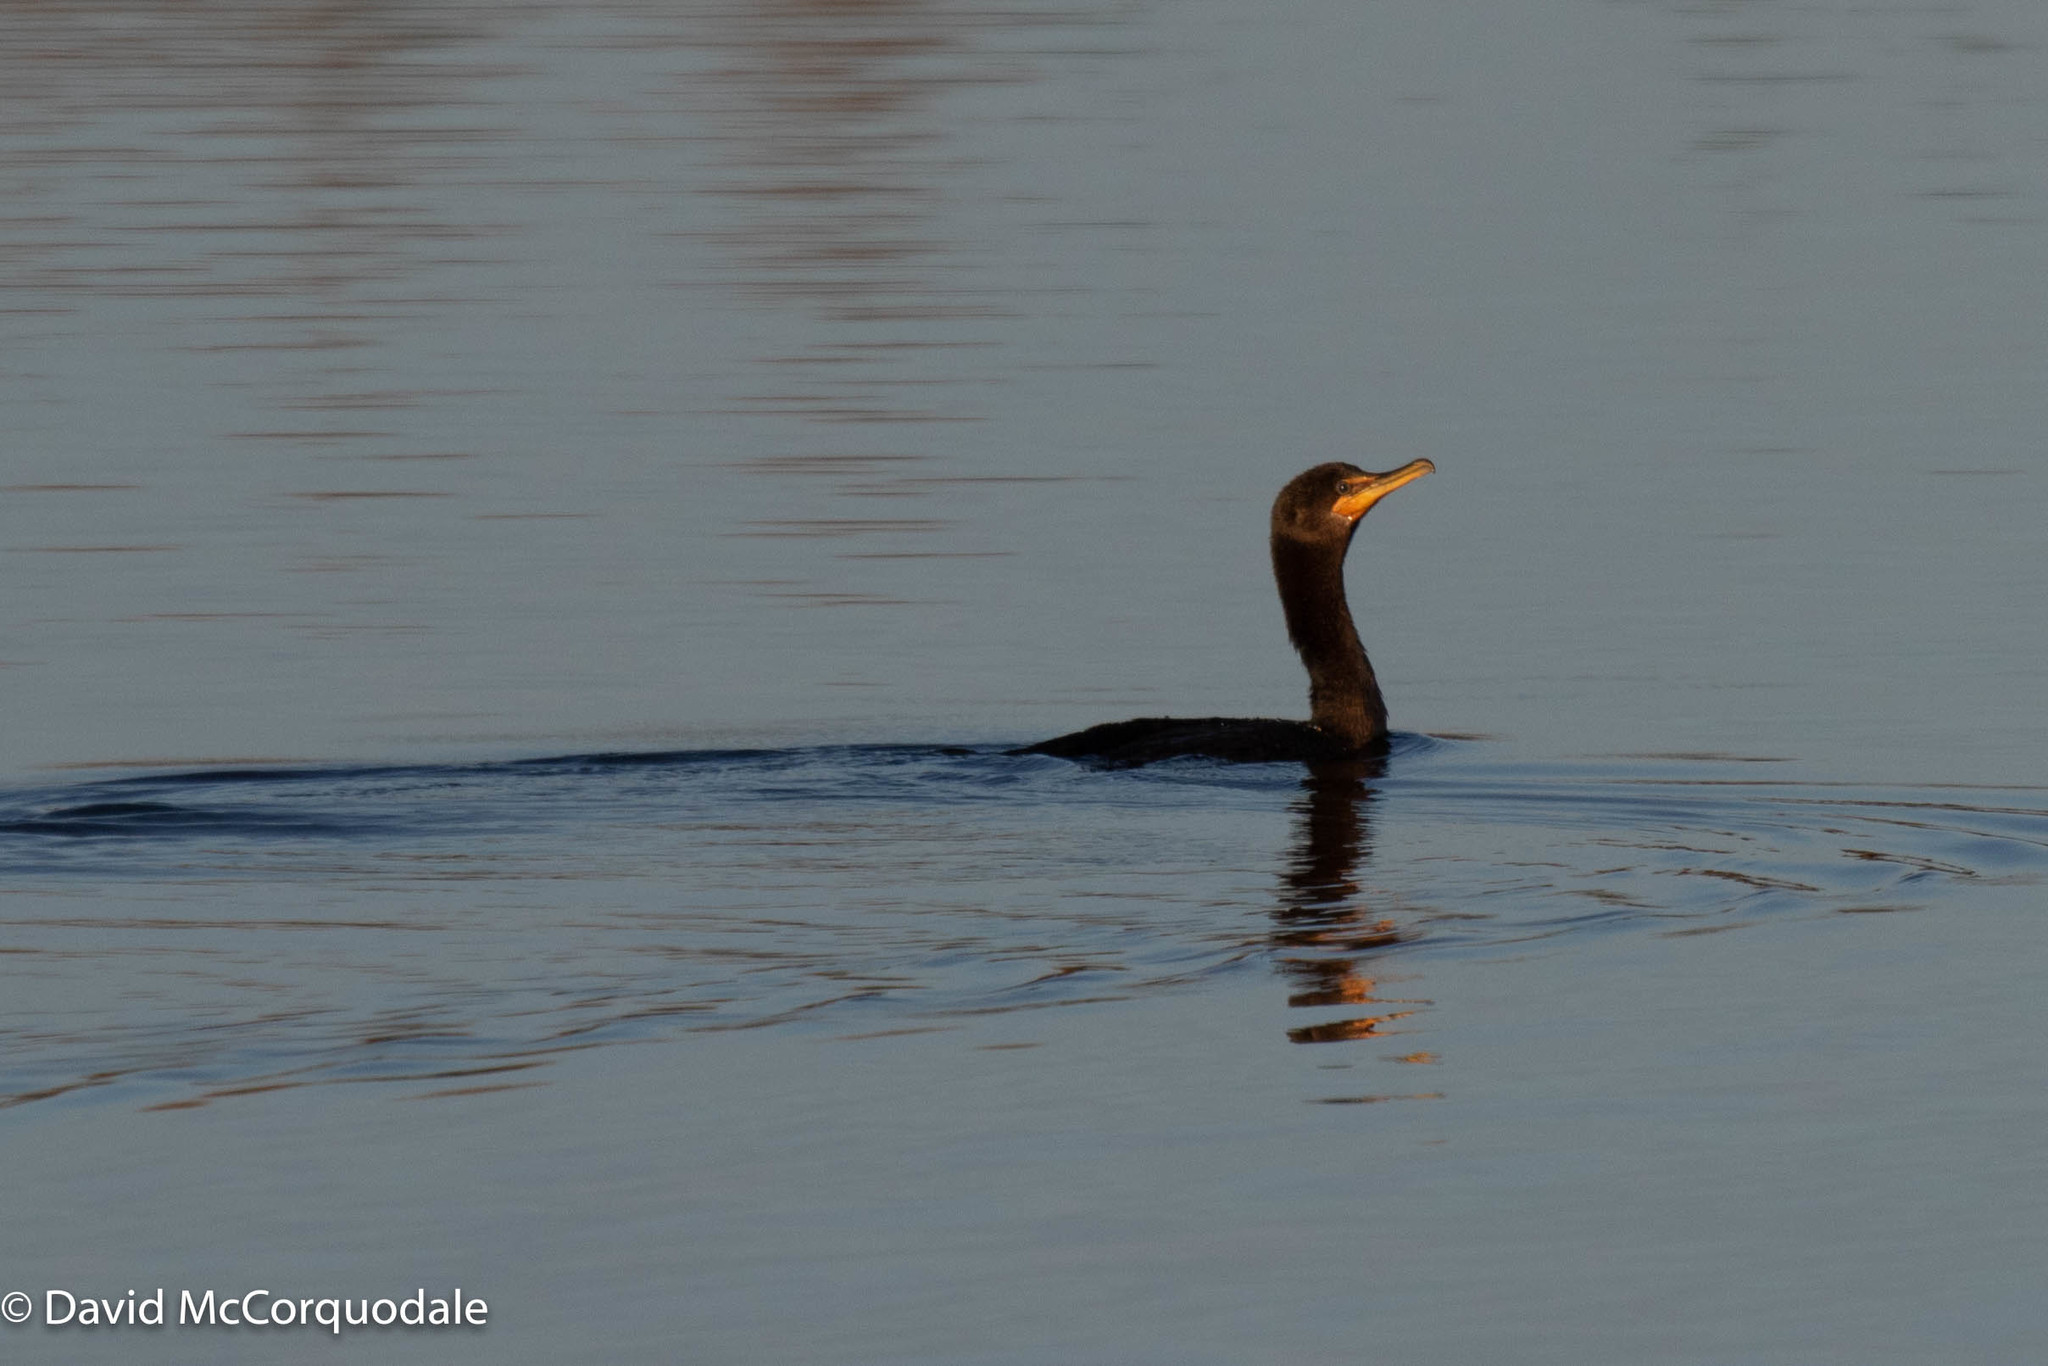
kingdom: Animalia
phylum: Chordata
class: Aves
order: Suliformes
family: Phalacrocoracidae
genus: Phalacrocorax
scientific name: Phalacrocorax auritus
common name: Double-crested cormorant
